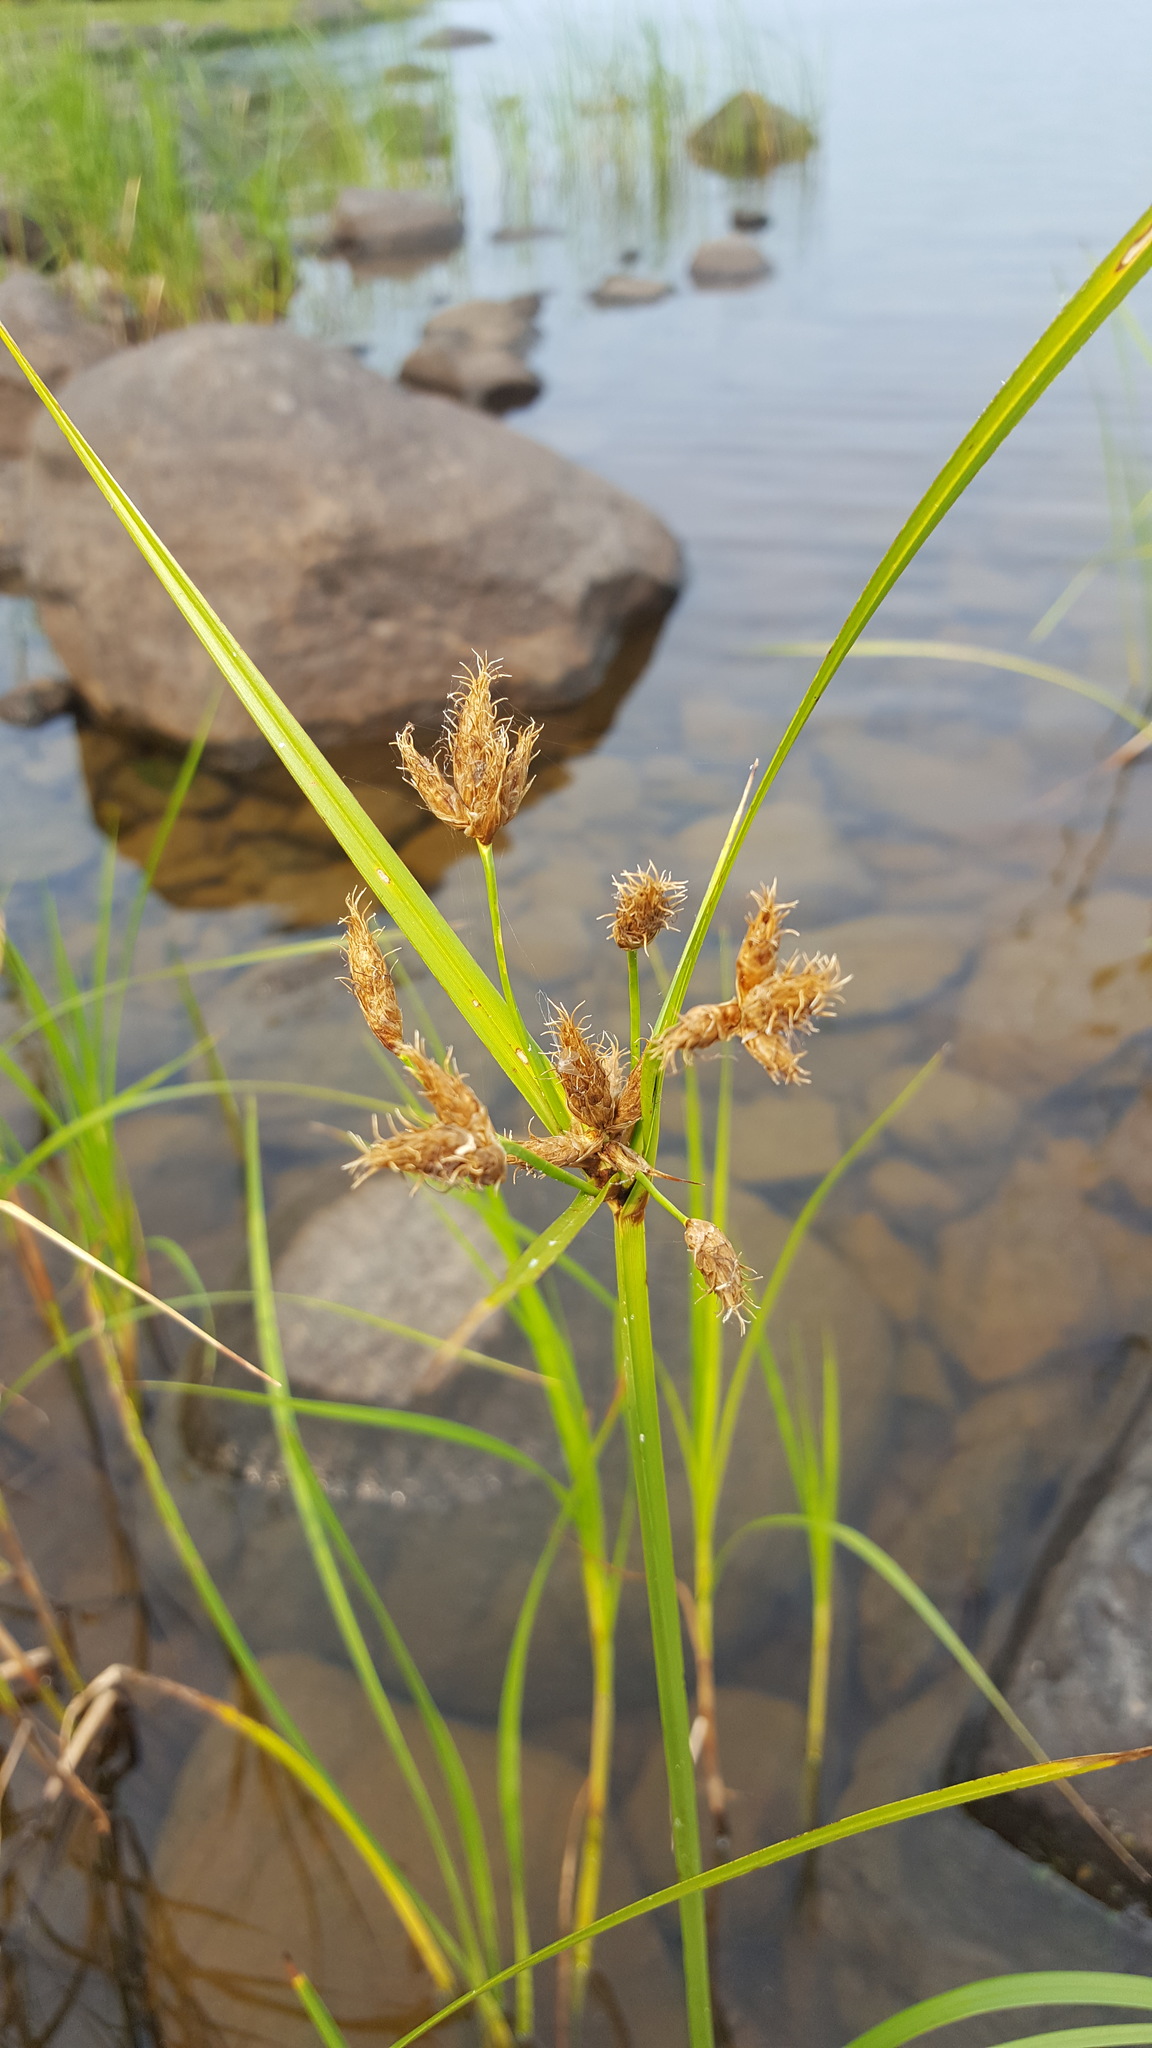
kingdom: Plantae
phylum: Tracheophyta
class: Liliopsida
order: Poales
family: Cyperaceae
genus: Bolboschoenus
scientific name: Bolboschoenus fluviatilis
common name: River bulrush
